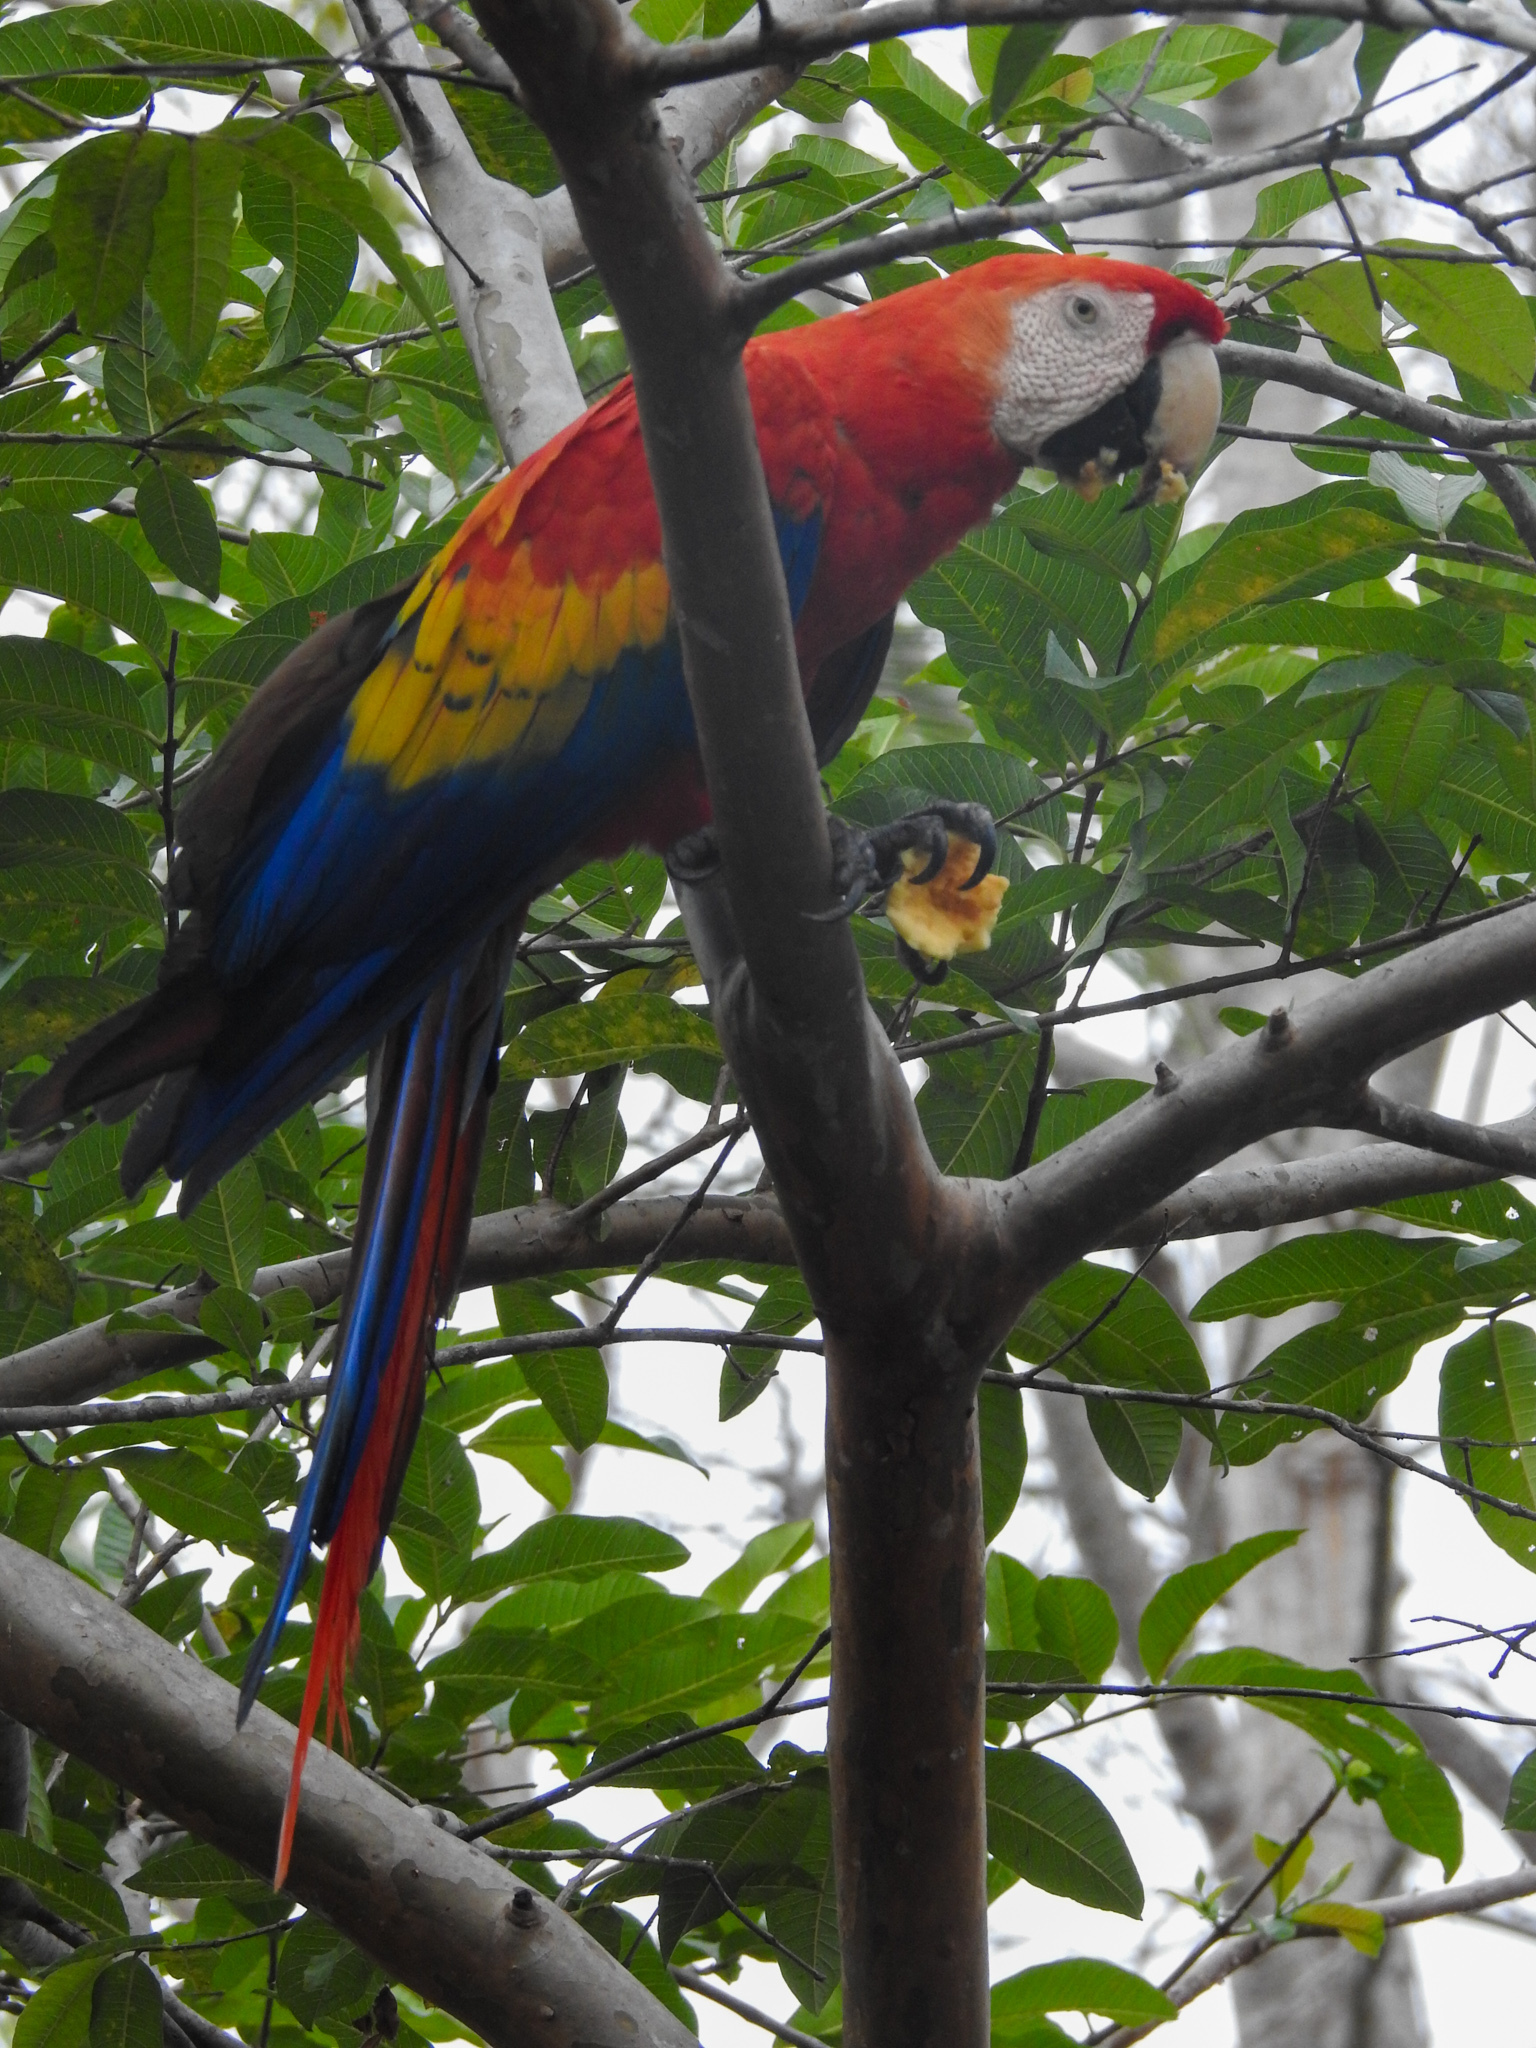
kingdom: Animalia
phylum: Chordata
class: Aves
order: Psittaciformes
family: Psittacidae
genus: Ara
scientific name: Ara macao
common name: Scarlet macaw
